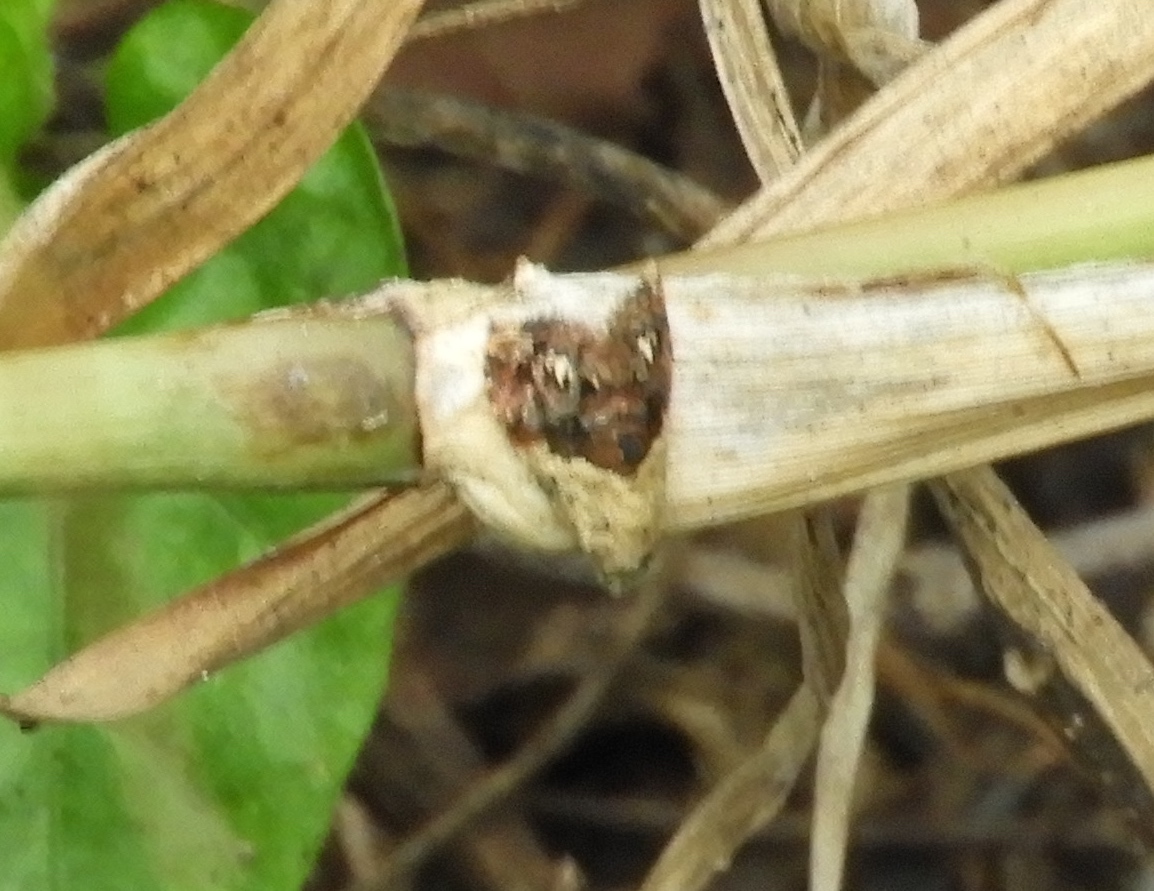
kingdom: Animalia
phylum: Arthropoda
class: Insecta
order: Lepidoptera
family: Noctuidae
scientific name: Noctuidae
